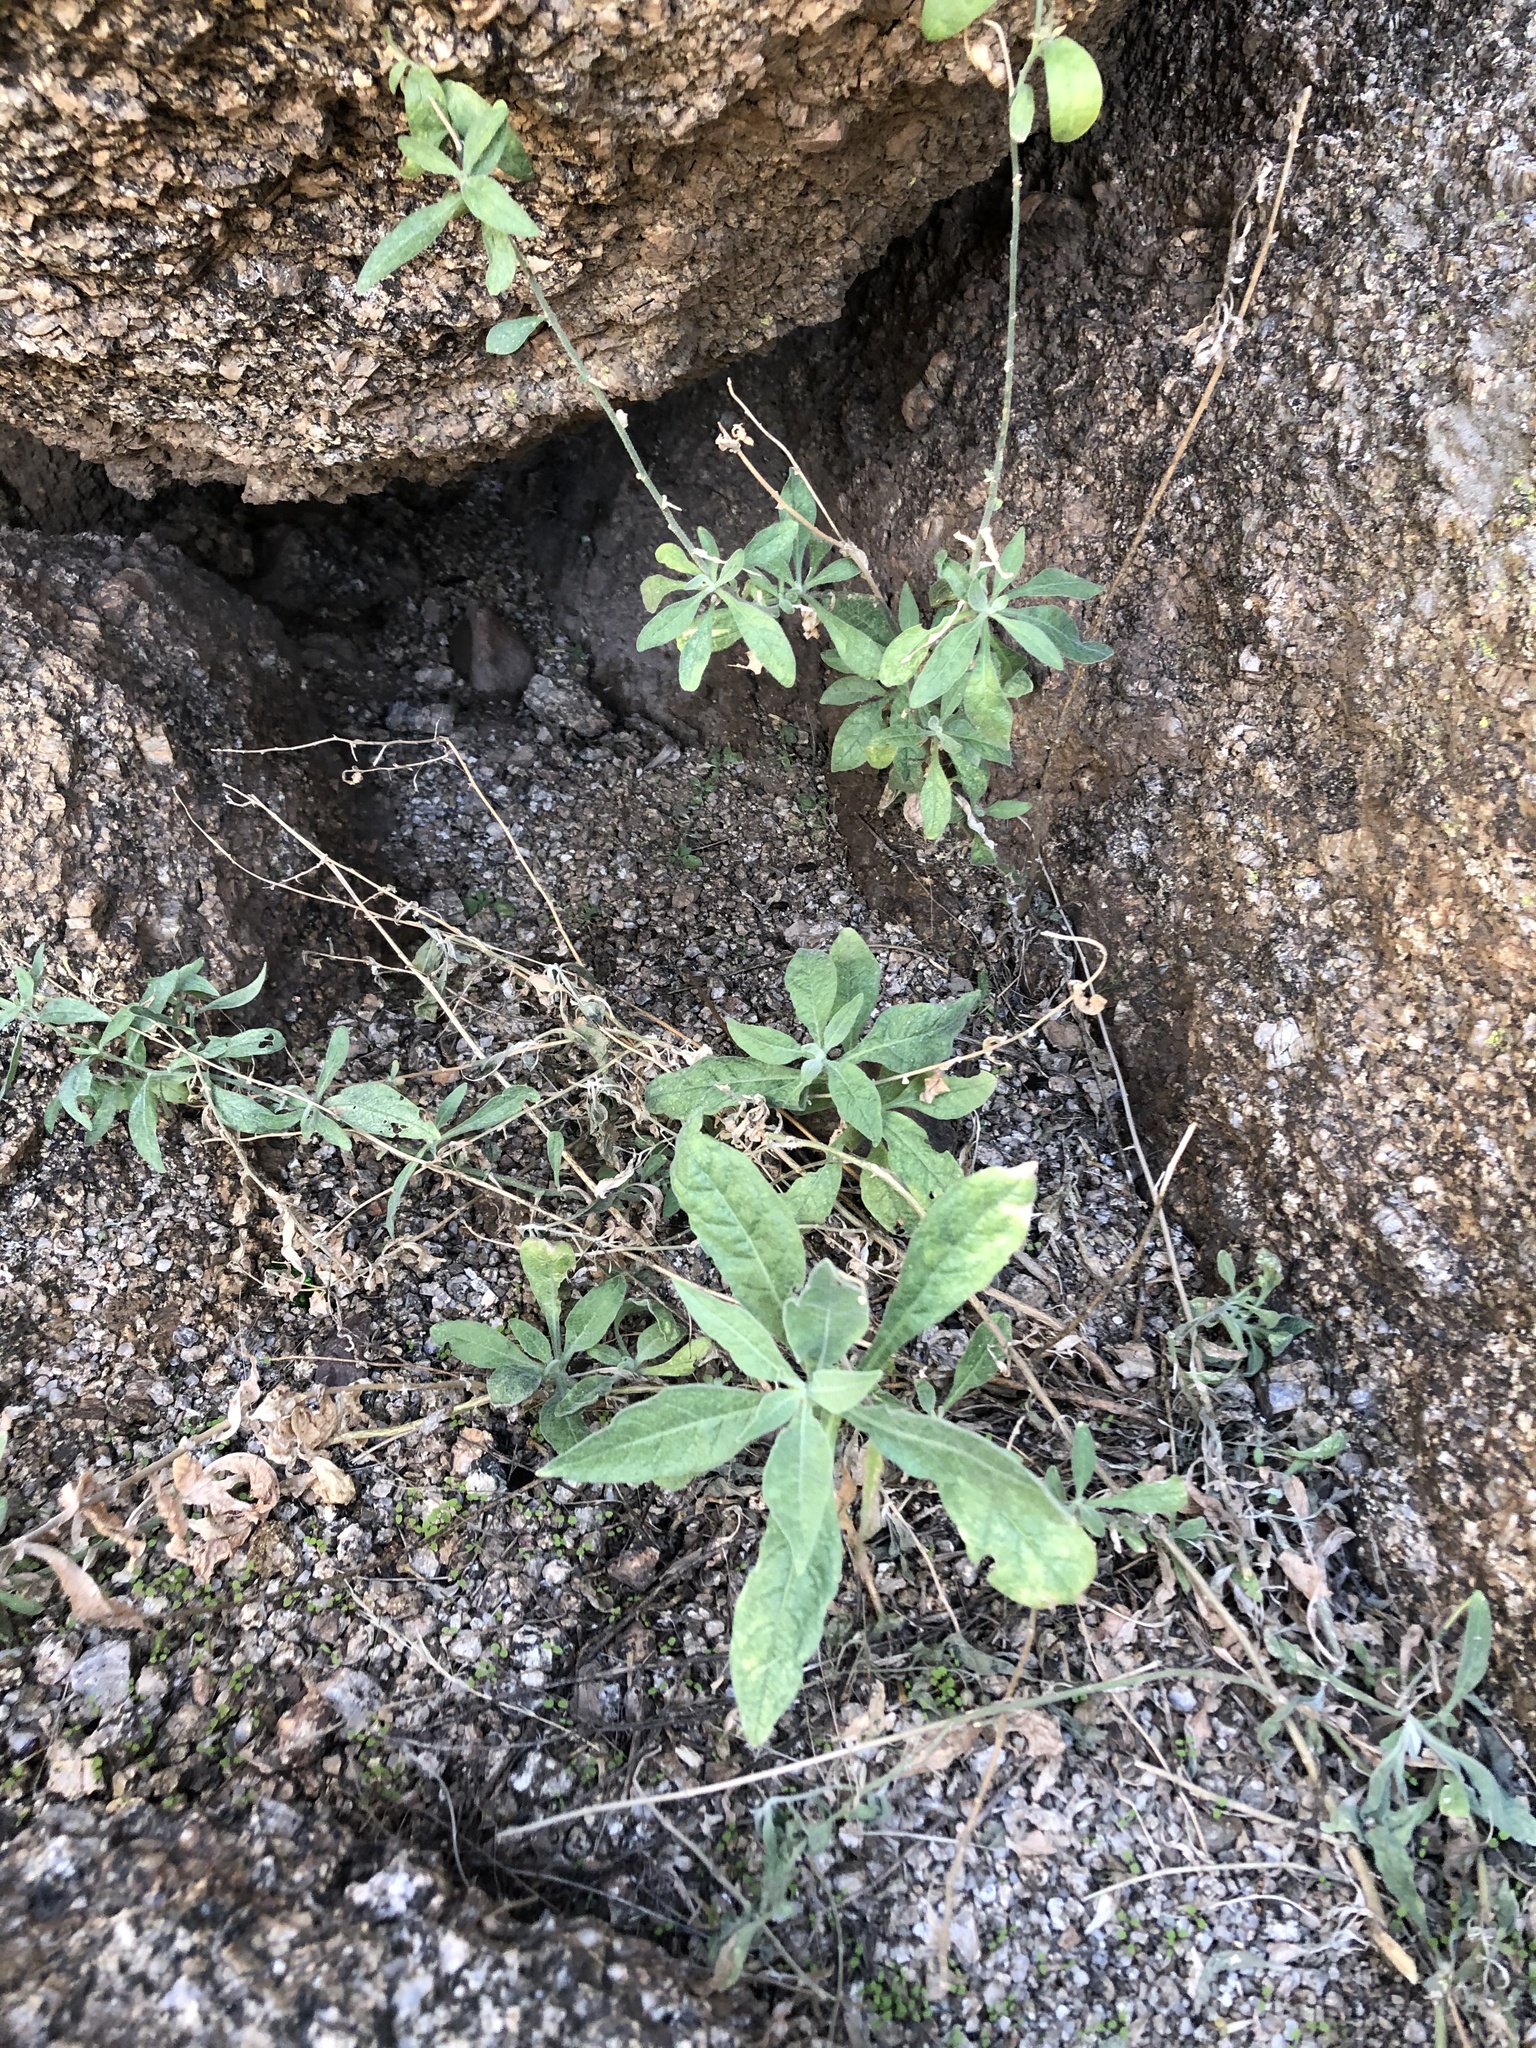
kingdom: Plantae
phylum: Tracheophyta
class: Magnoliopsida
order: Solanales
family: Solanaceae
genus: Nicotiana
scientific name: Nicotiana obtusifolia
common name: Desert tobacco
